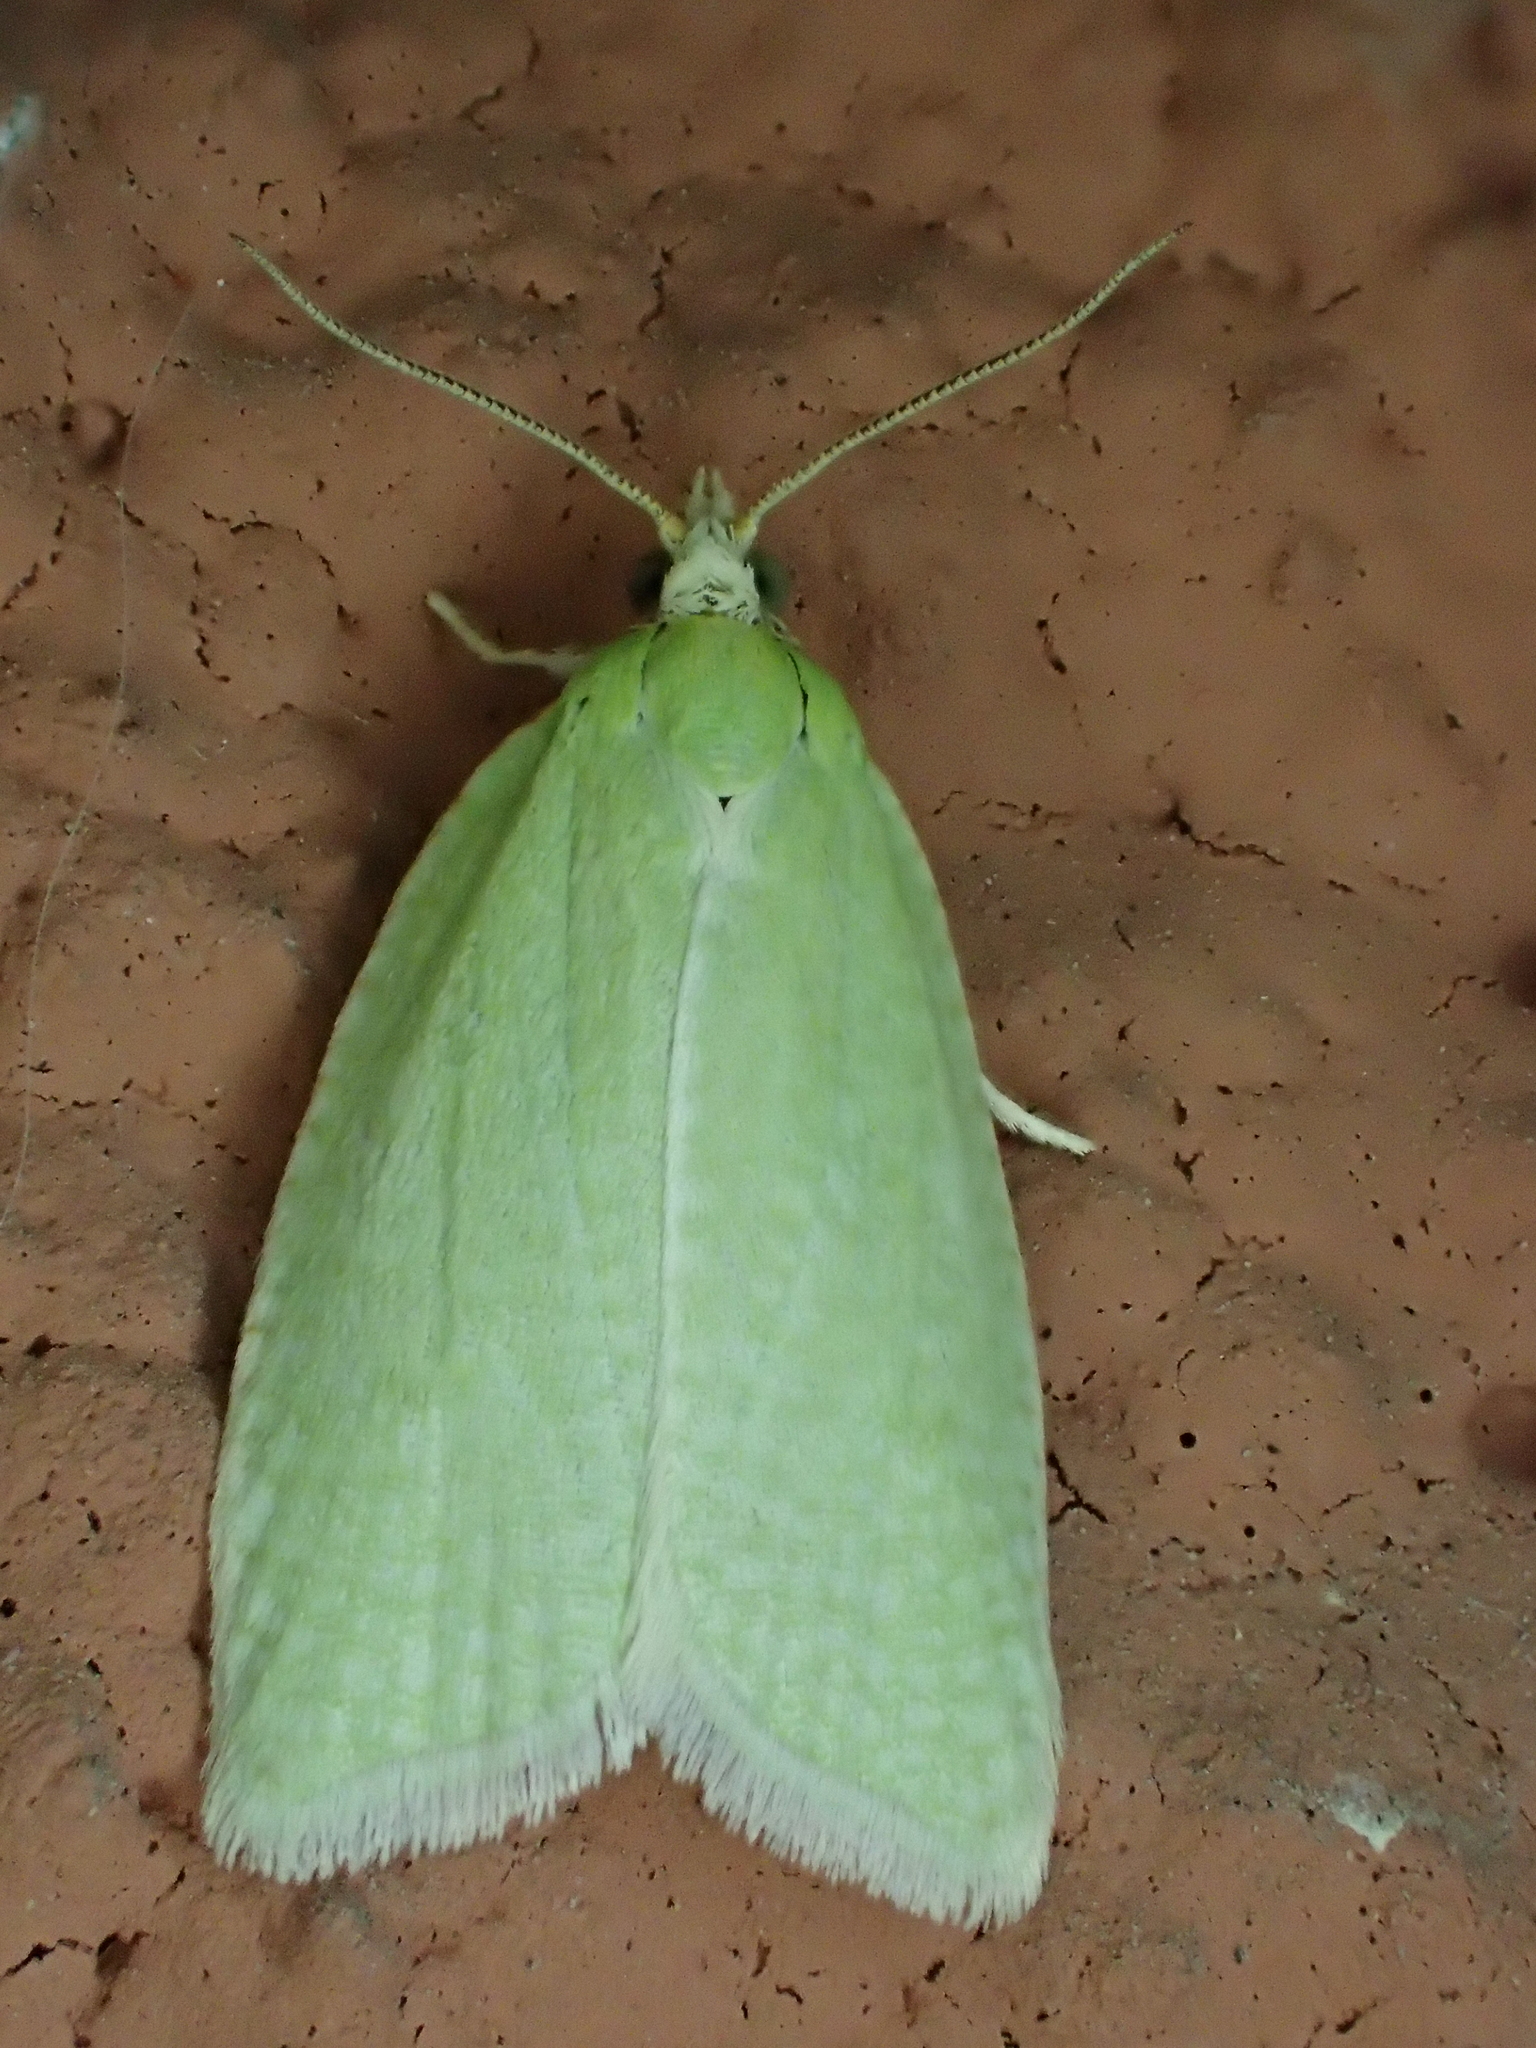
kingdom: Animalia
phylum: Arthropoda
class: Insecta
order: Lepidoptera
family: Tortricidae
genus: Tortrix
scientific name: Tortrix viridana
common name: Green oak tortrix
